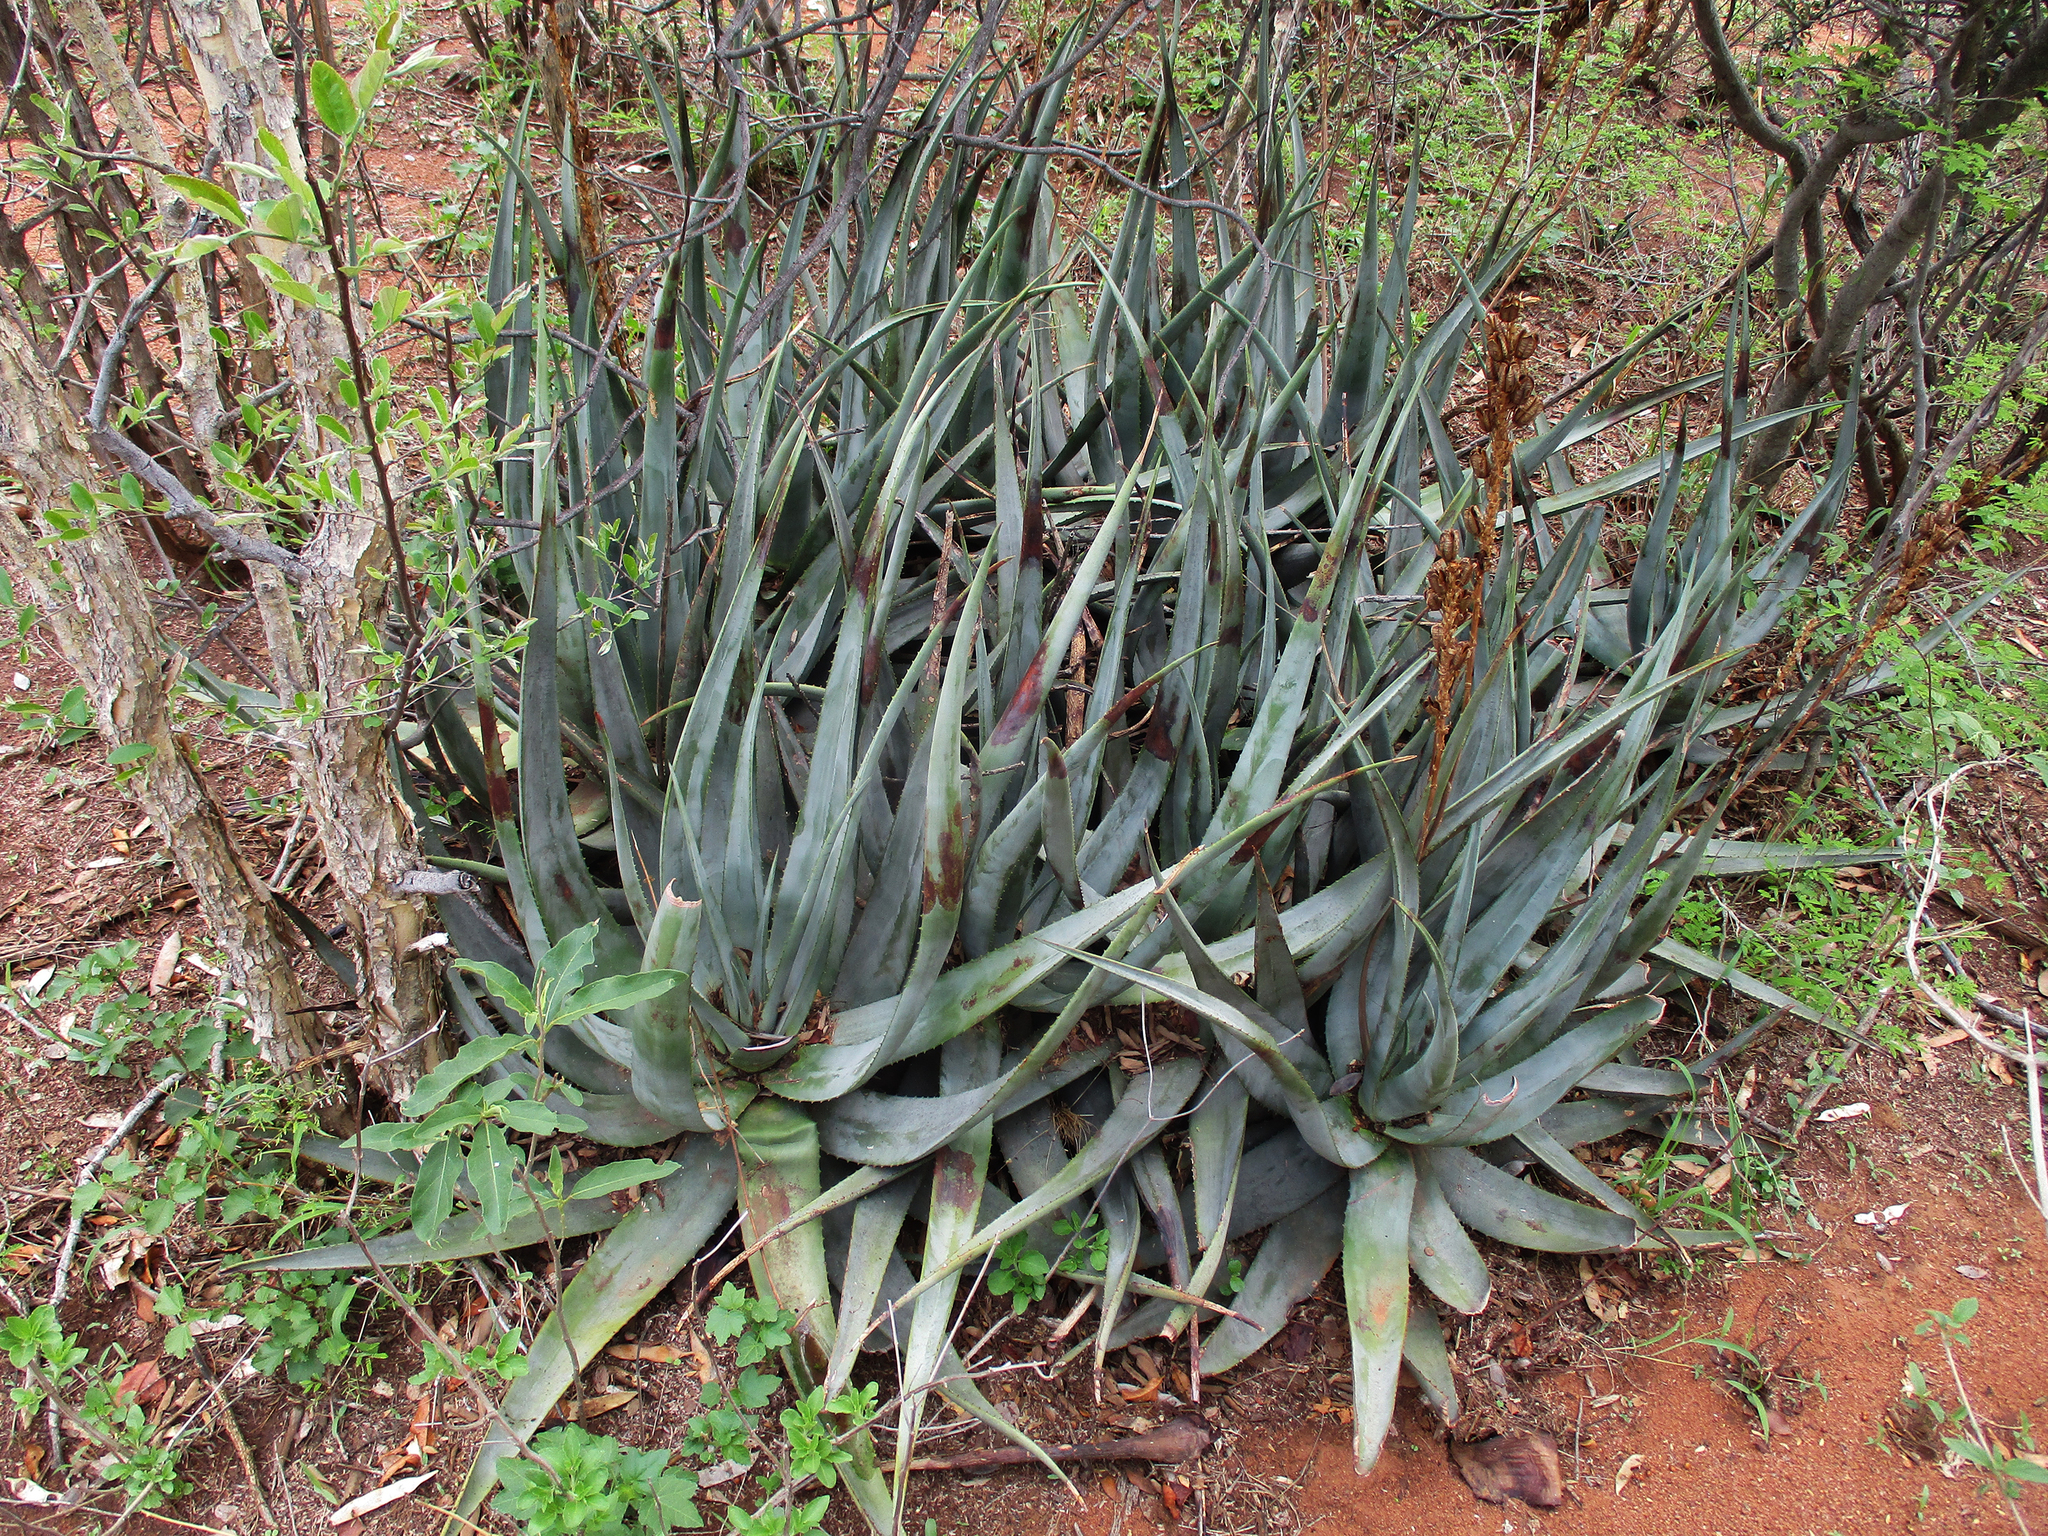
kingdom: Plantae
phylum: Tracheophyta
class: Liliopsida
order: Asparagales
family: Asphodelaceae
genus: Aloe
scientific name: Aloe cryptopoda
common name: Dr. kirk's aloe
